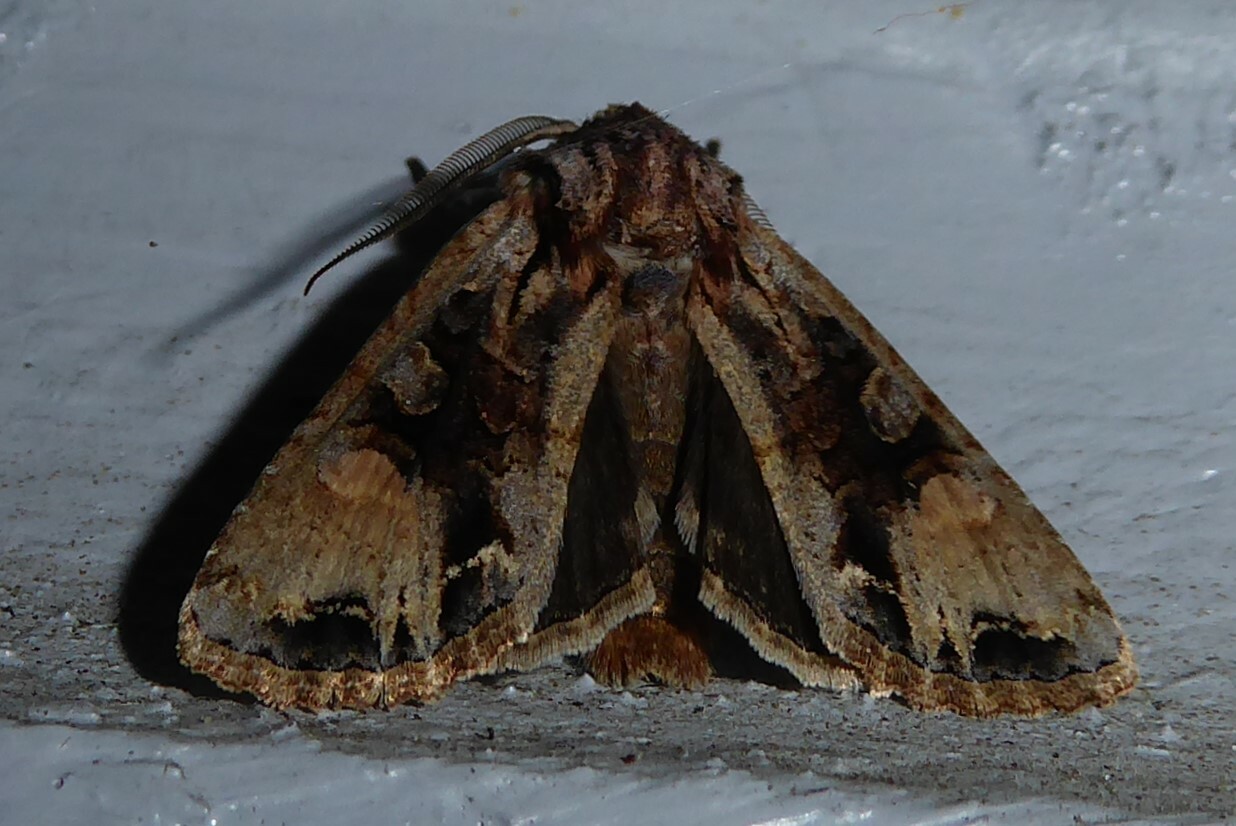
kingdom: Animalia
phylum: Arthropoda
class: Insecta
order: Lepidoptera
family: Noctuidae
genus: Ichneutica
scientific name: Ichneutica
